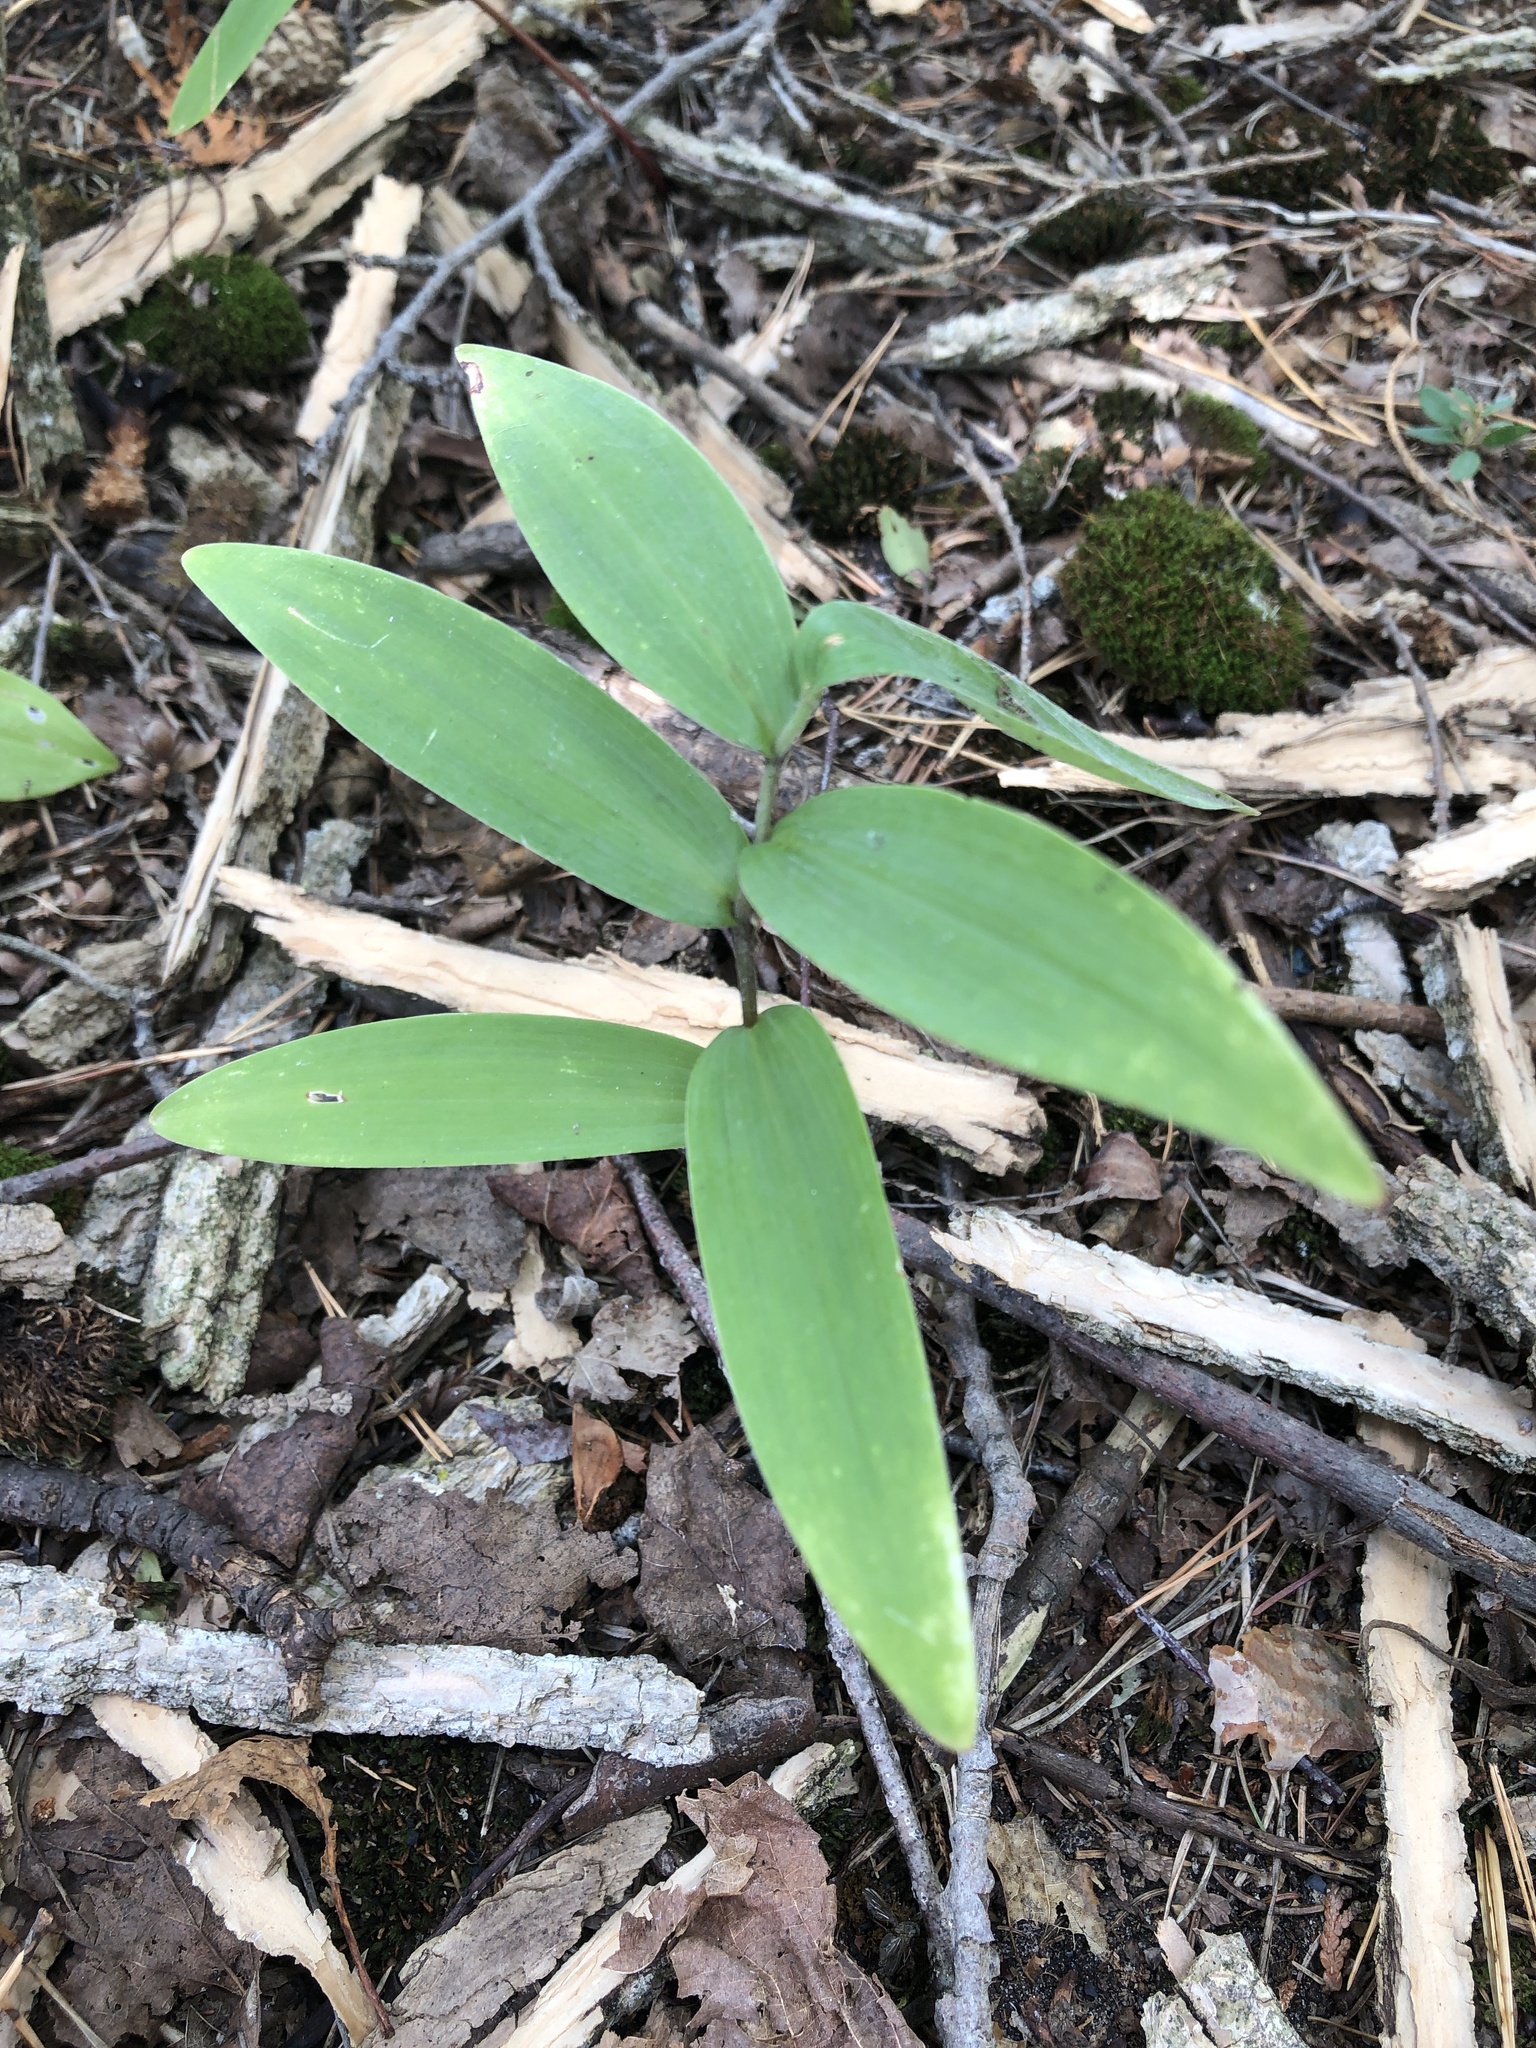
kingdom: Plantae
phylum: Tracheophyta
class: Liliopsida
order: Asparagales
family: Asparagaceae
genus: Maianthemum
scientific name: Maianthemum stellatum
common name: Little false solomon's seal
